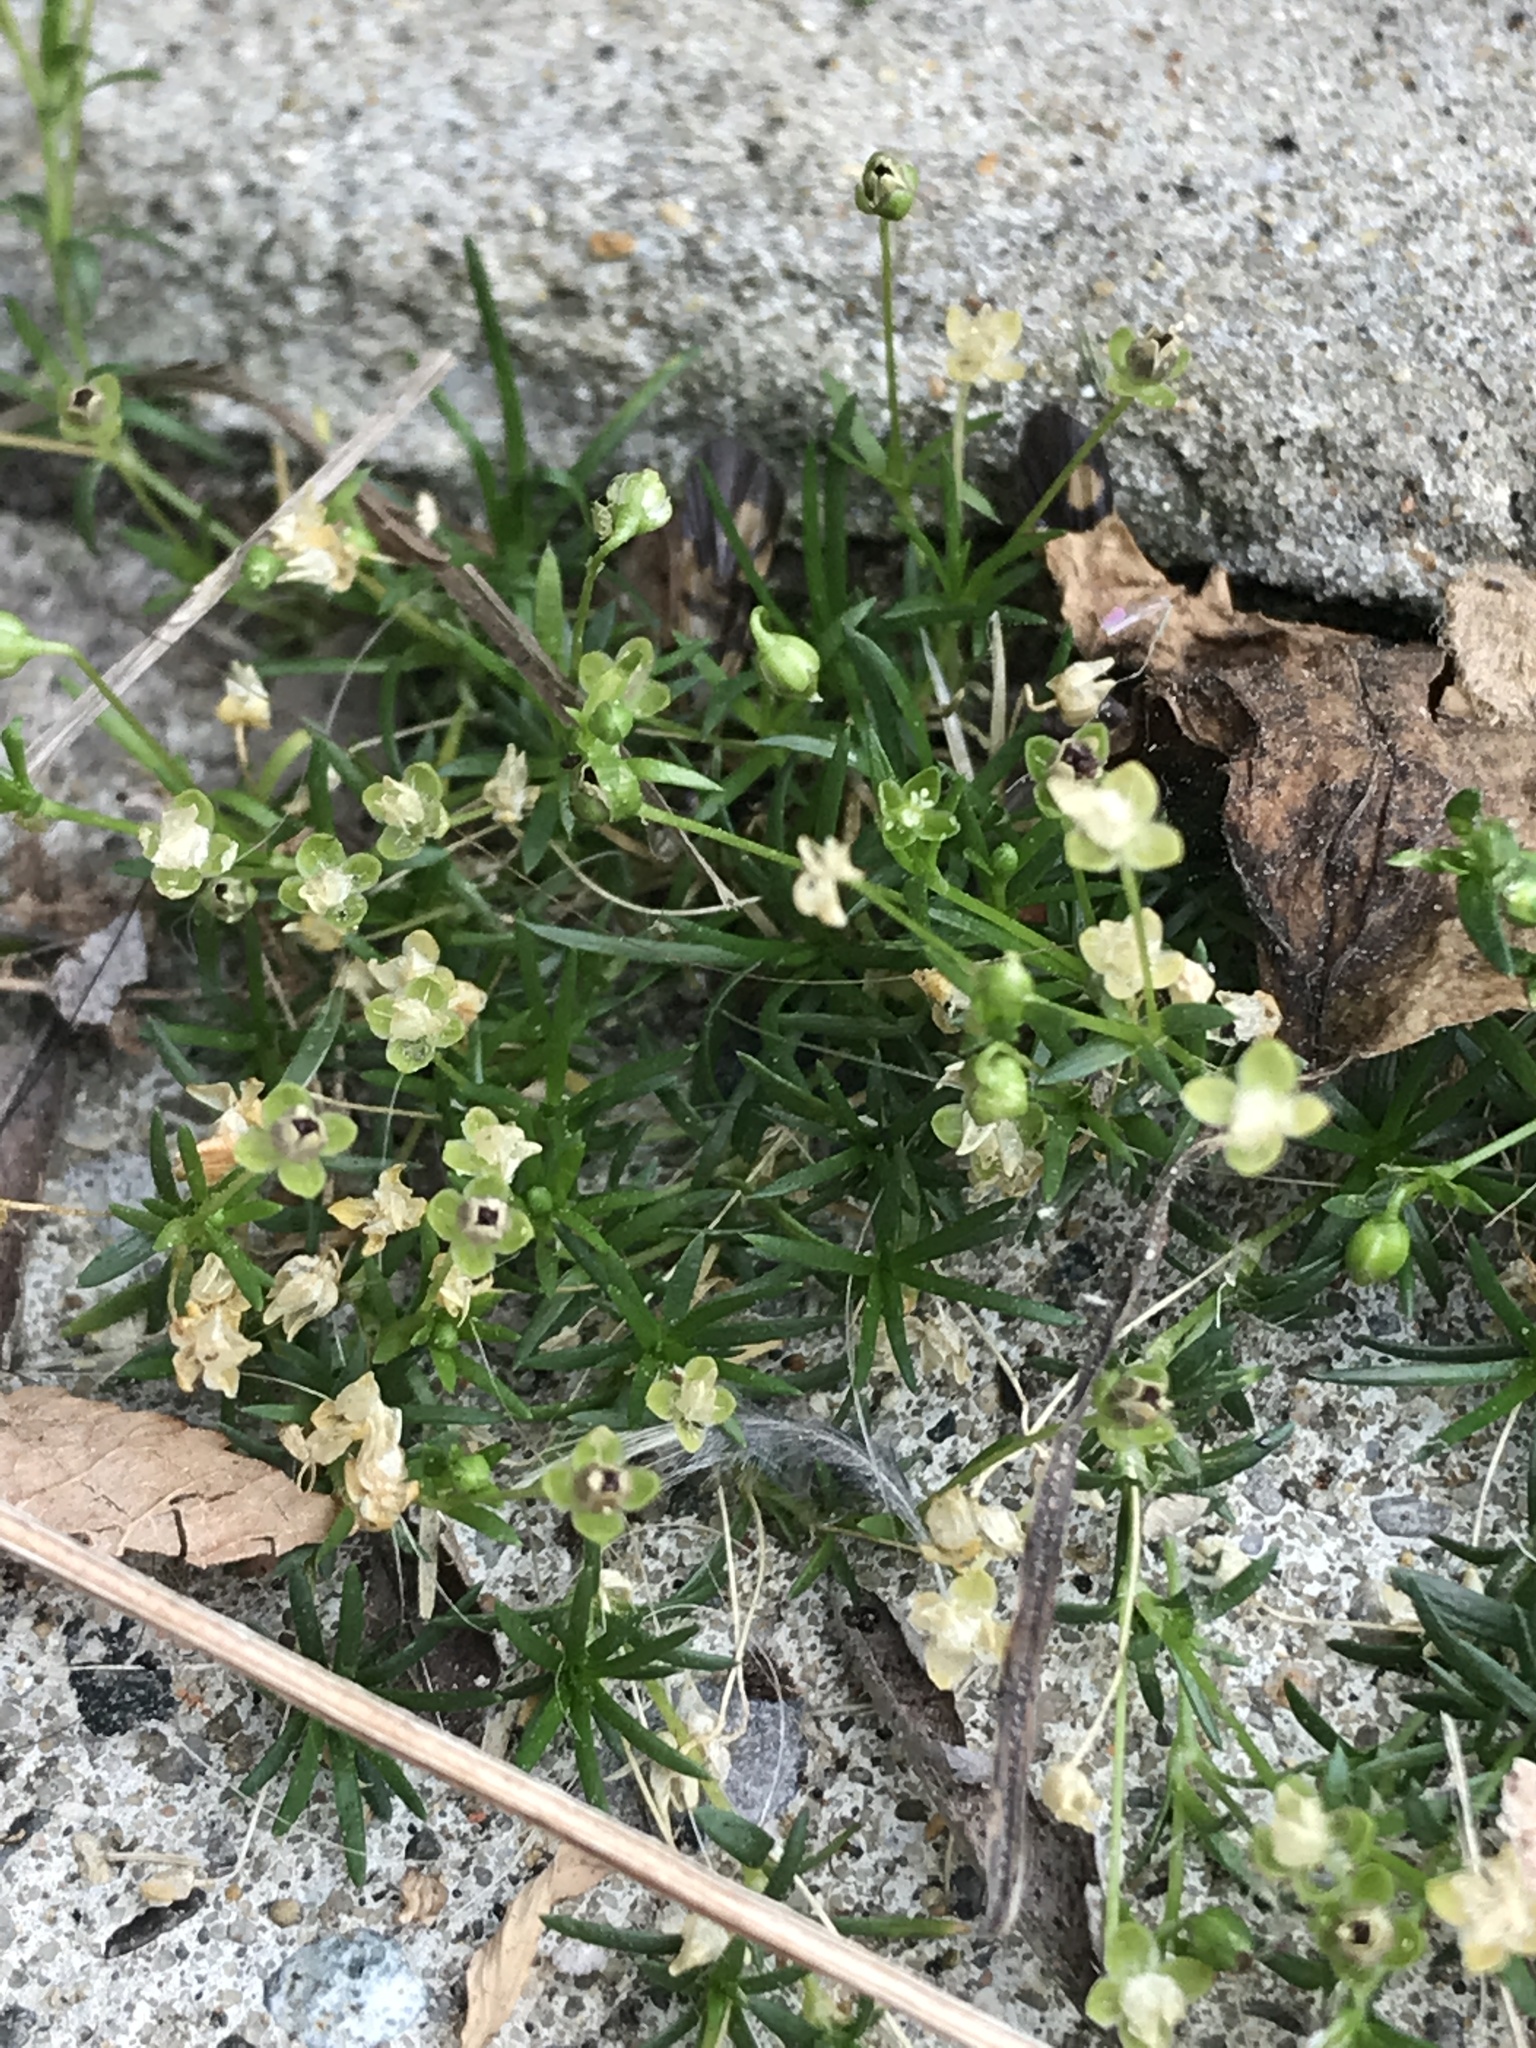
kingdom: Plantae
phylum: Tracheophyta
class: Magnoliopsida
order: Caryophyllales
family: Caryophyllaceae
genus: Sagina
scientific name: Sagina procumbens
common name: Procumbent pearlwort
